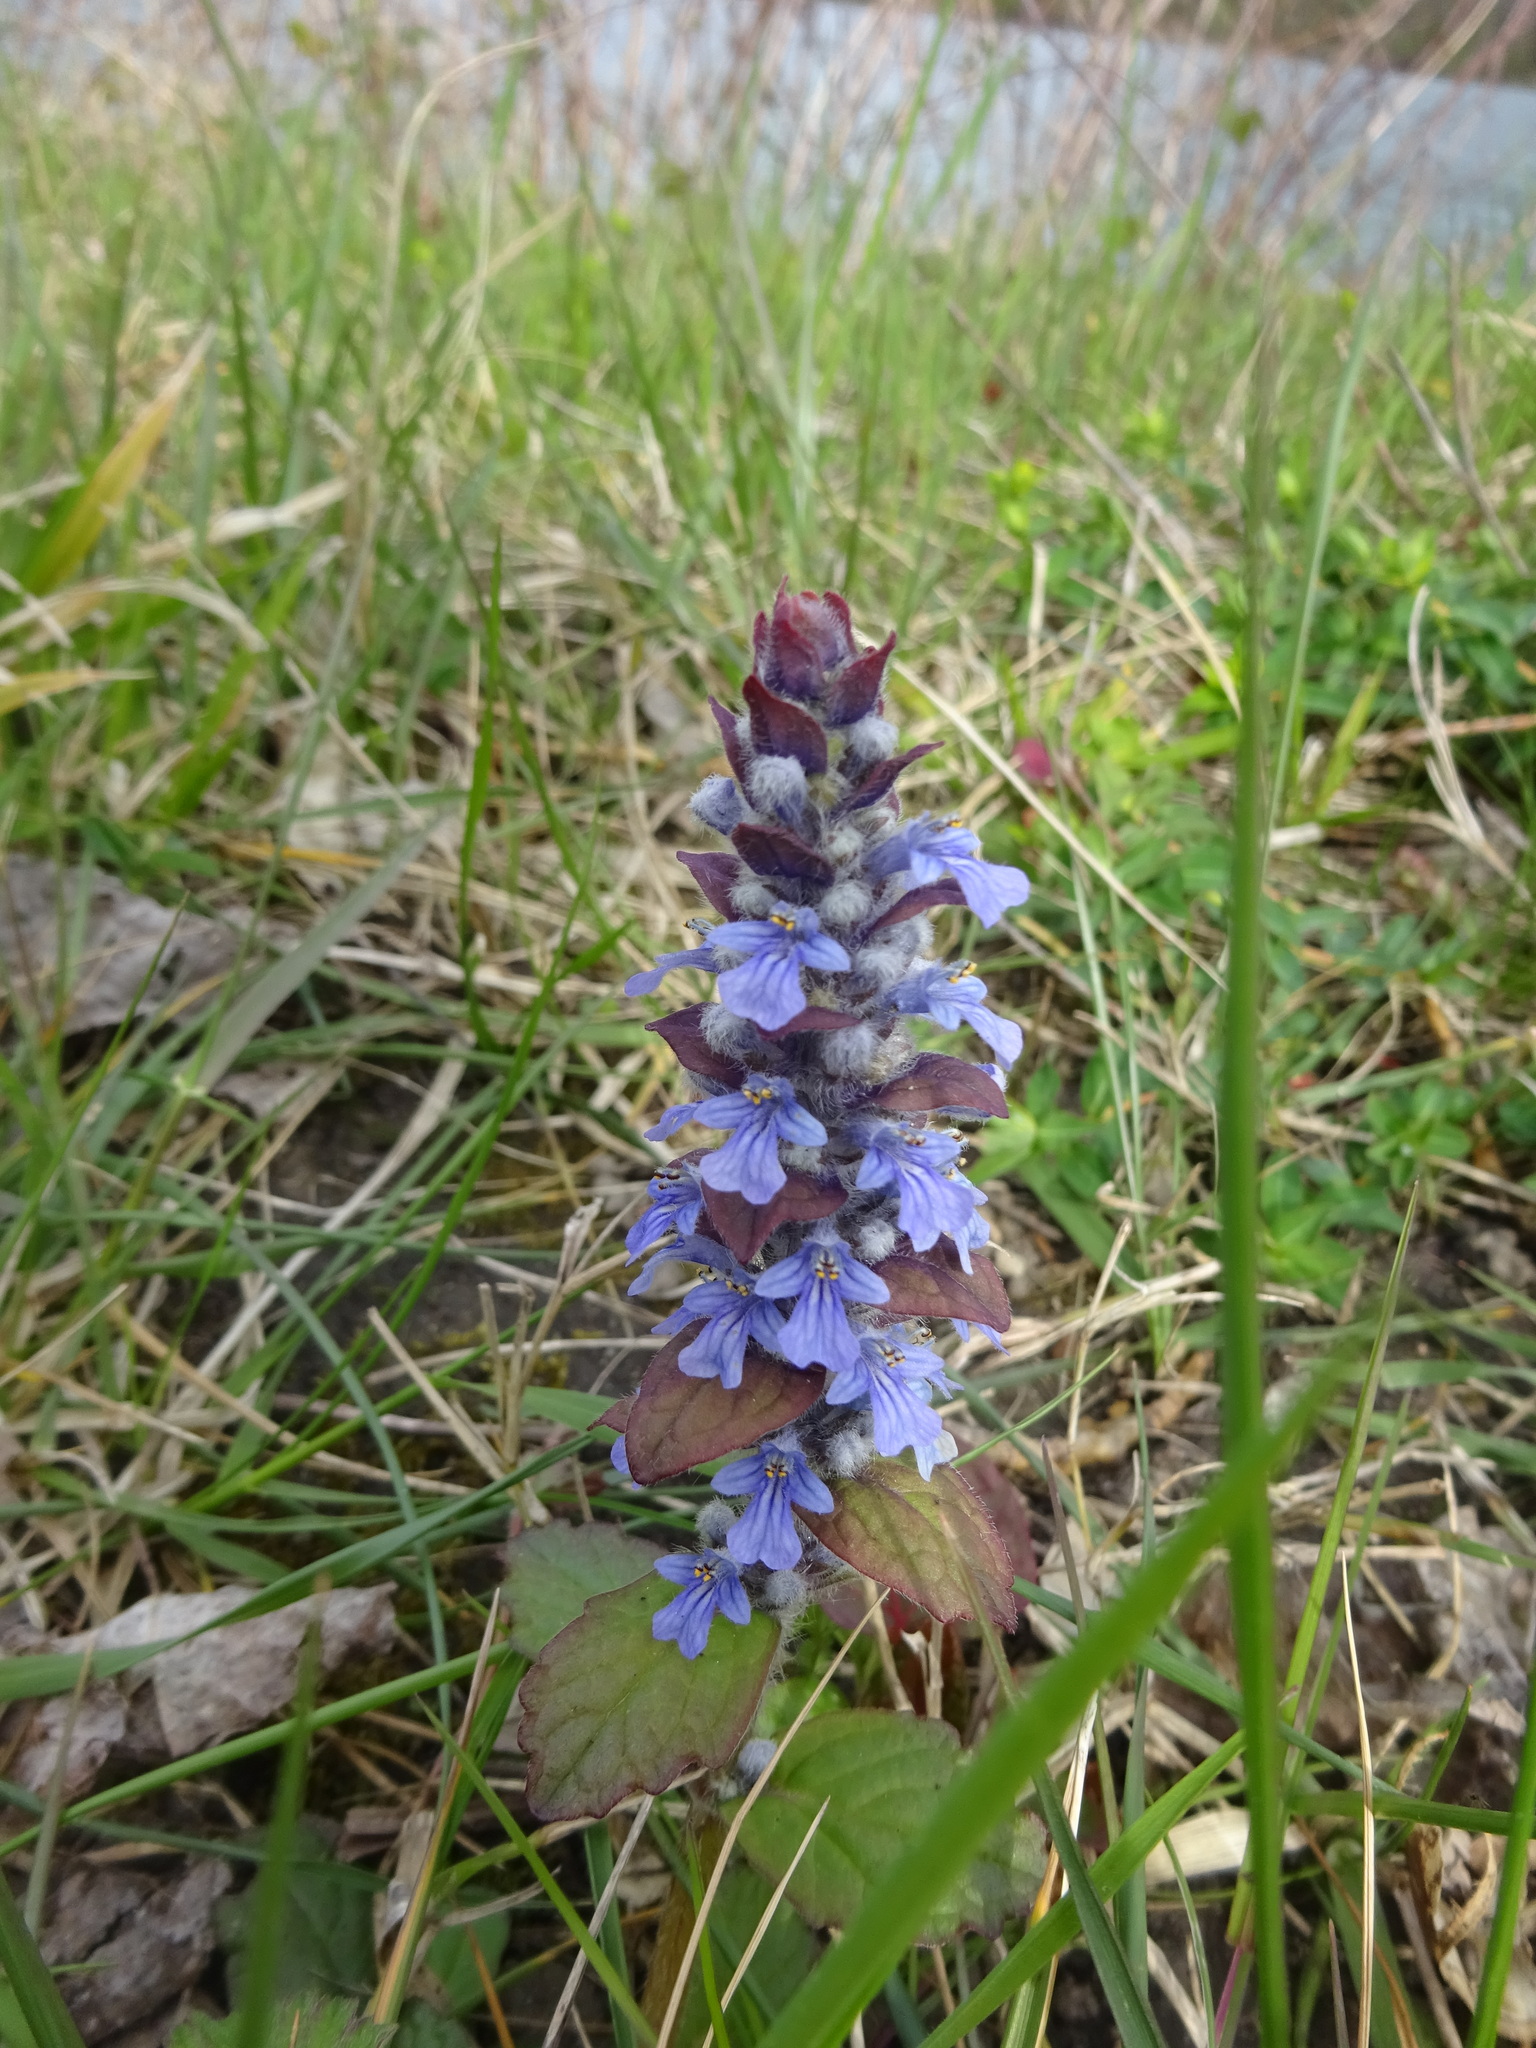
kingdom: Plantae
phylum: Tracheophyta
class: Magnoliopsida
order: Lamiales
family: Lamiaceae
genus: Ajuga
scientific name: Ajuga reptans
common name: Bugle
